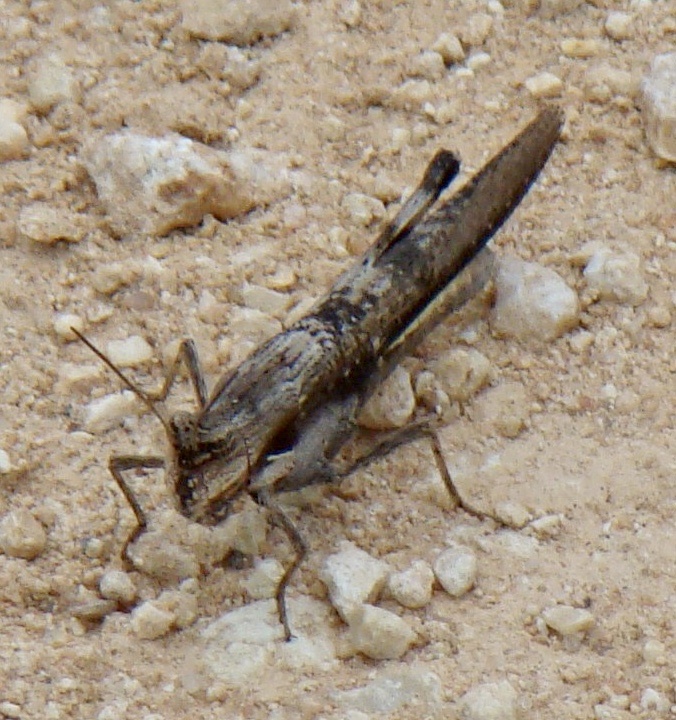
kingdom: Animalia
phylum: Arthropoda
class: Insecta
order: Orthoptera
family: Acrididae
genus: Morphacris
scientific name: Morphacris fasciata
